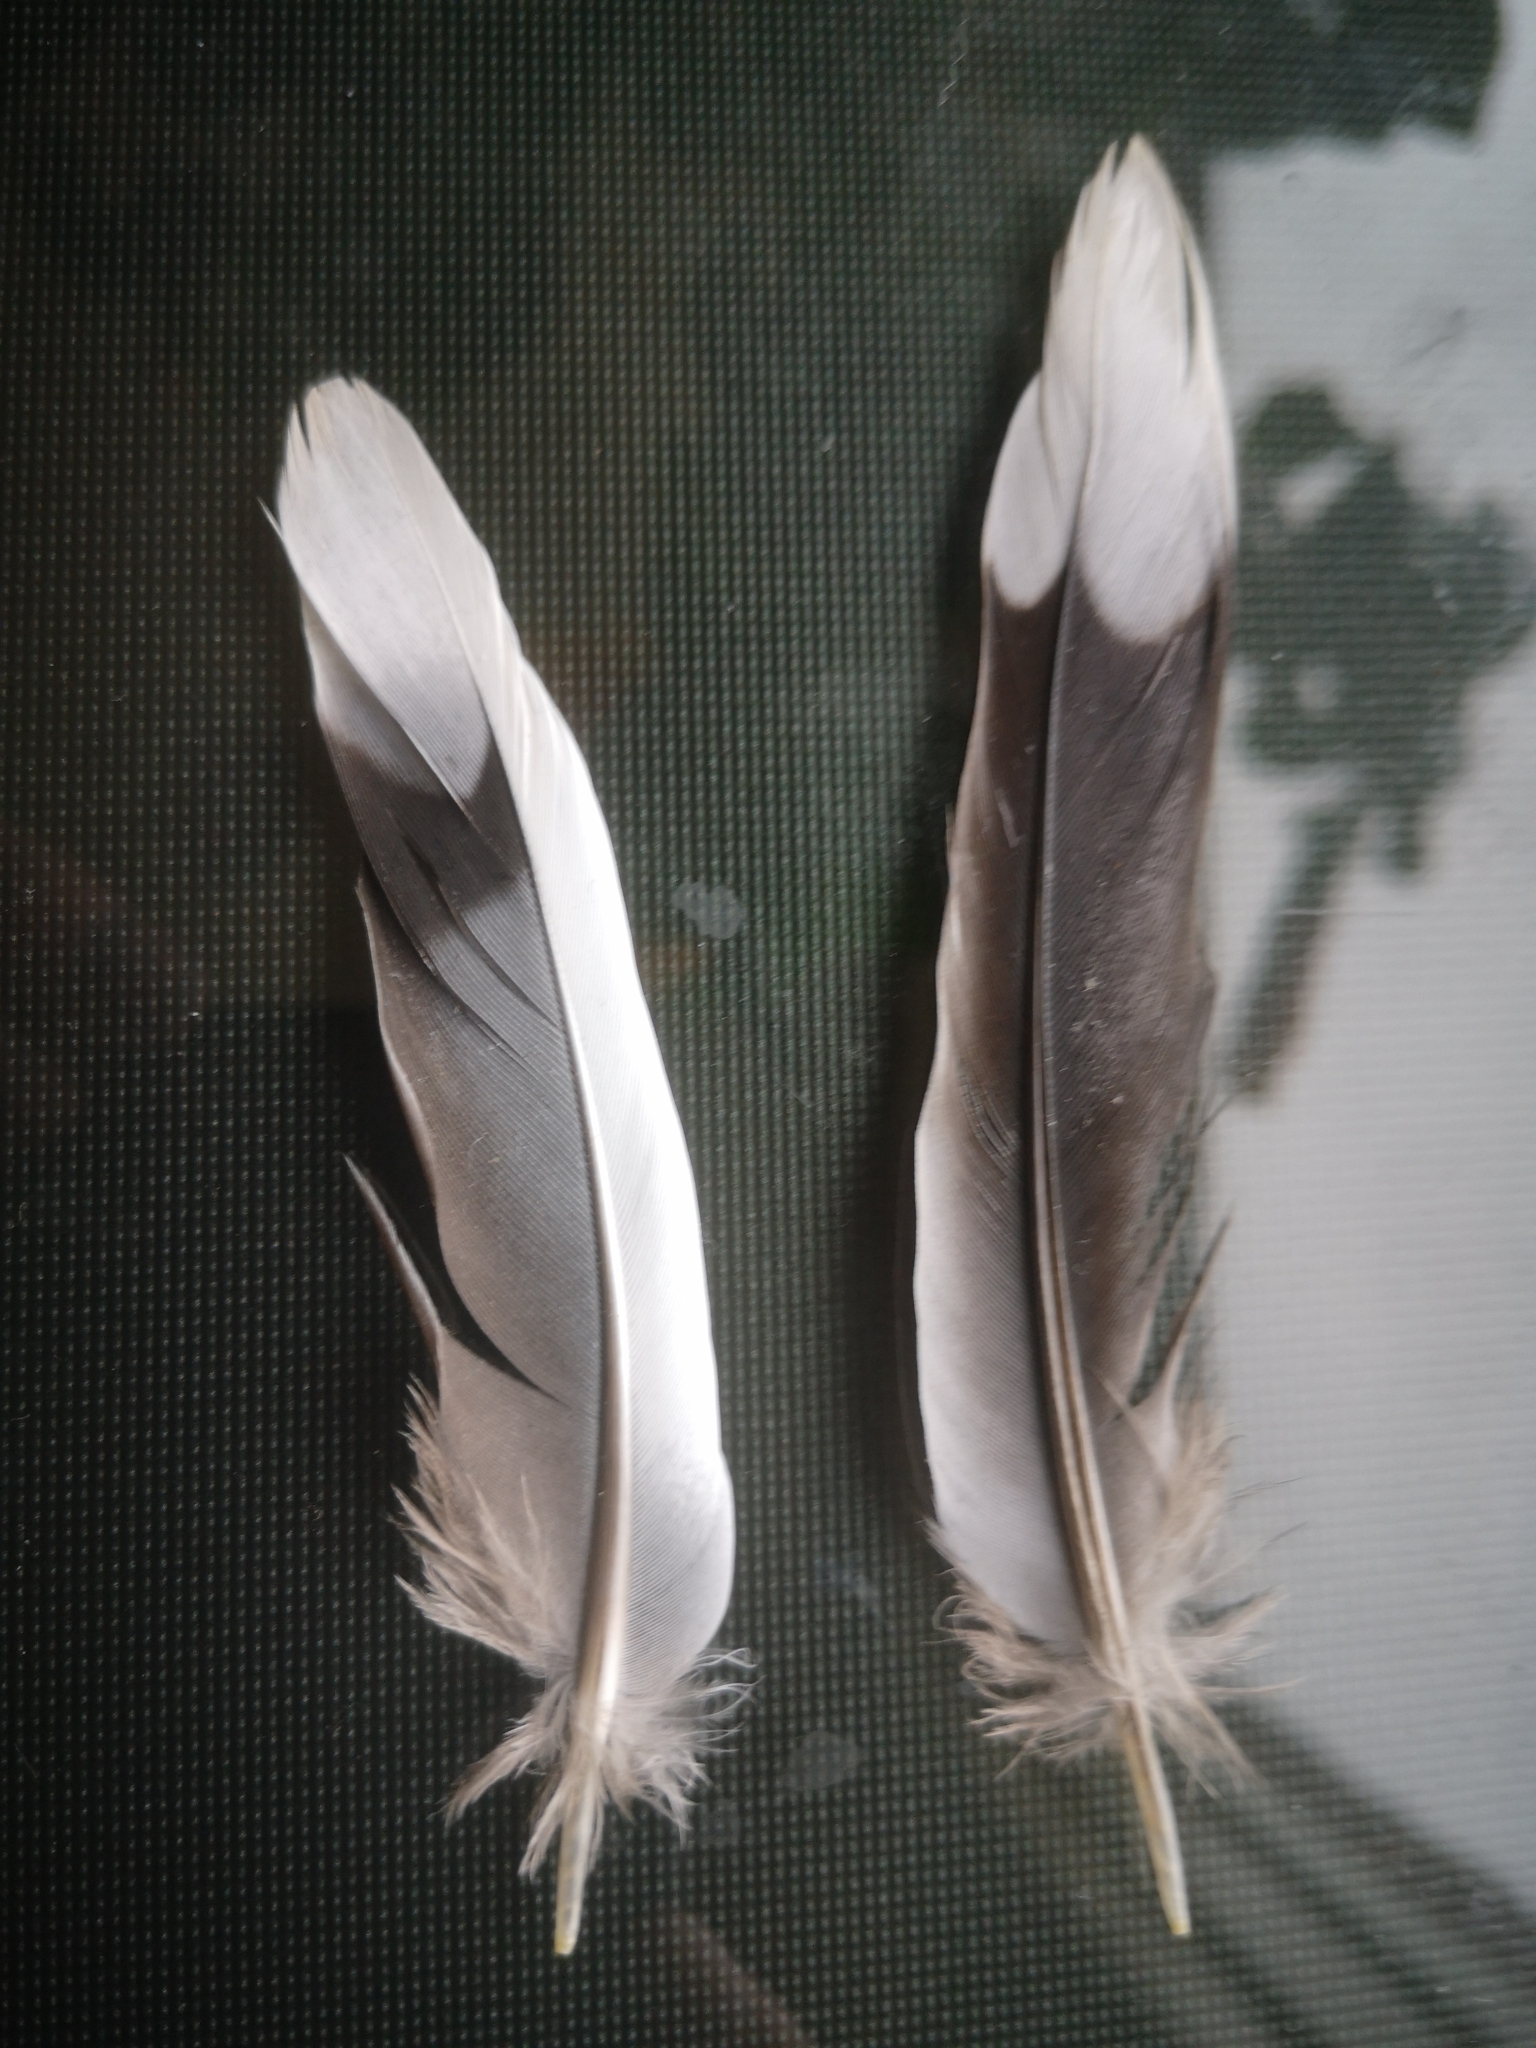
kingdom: Animalia
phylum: Chordata
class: Aves
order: Columbiformes
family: Columbidae
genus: Zenaida
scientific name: Zenaida macroura
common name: Mourning dove
